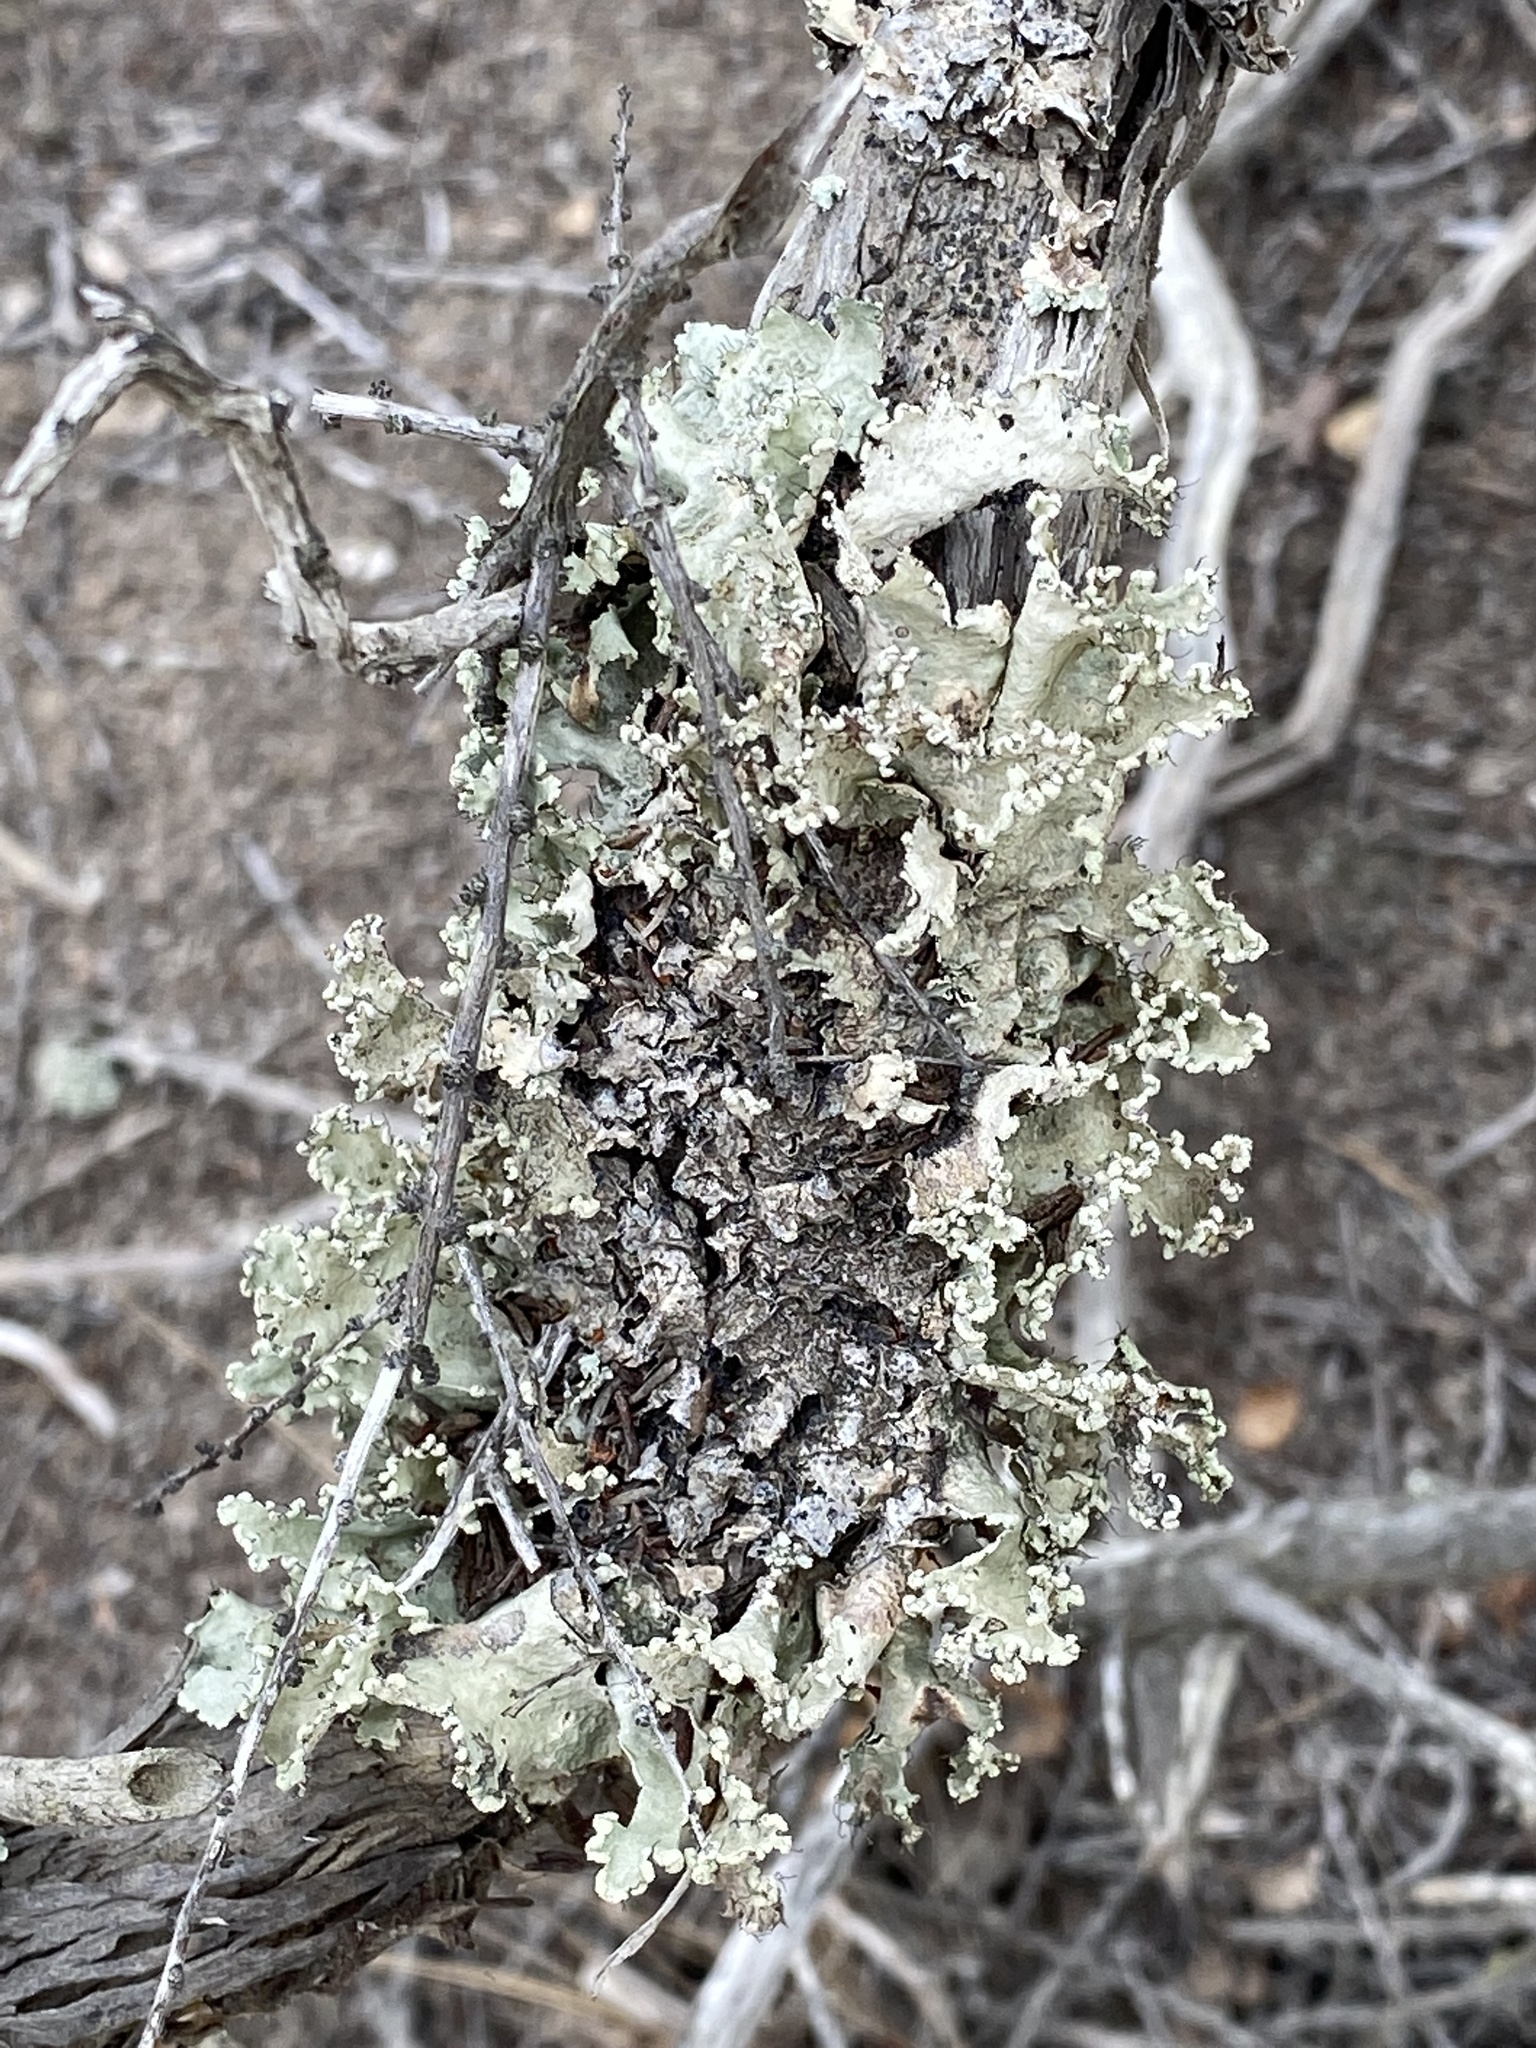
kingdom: Fungi
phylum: Ascomycota
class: Lecanoromycetes
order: Lecanorales
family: Parmeliaceae
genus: Parmotrema
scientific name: Parmotrema reticulatum
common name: Black sheet lichen
